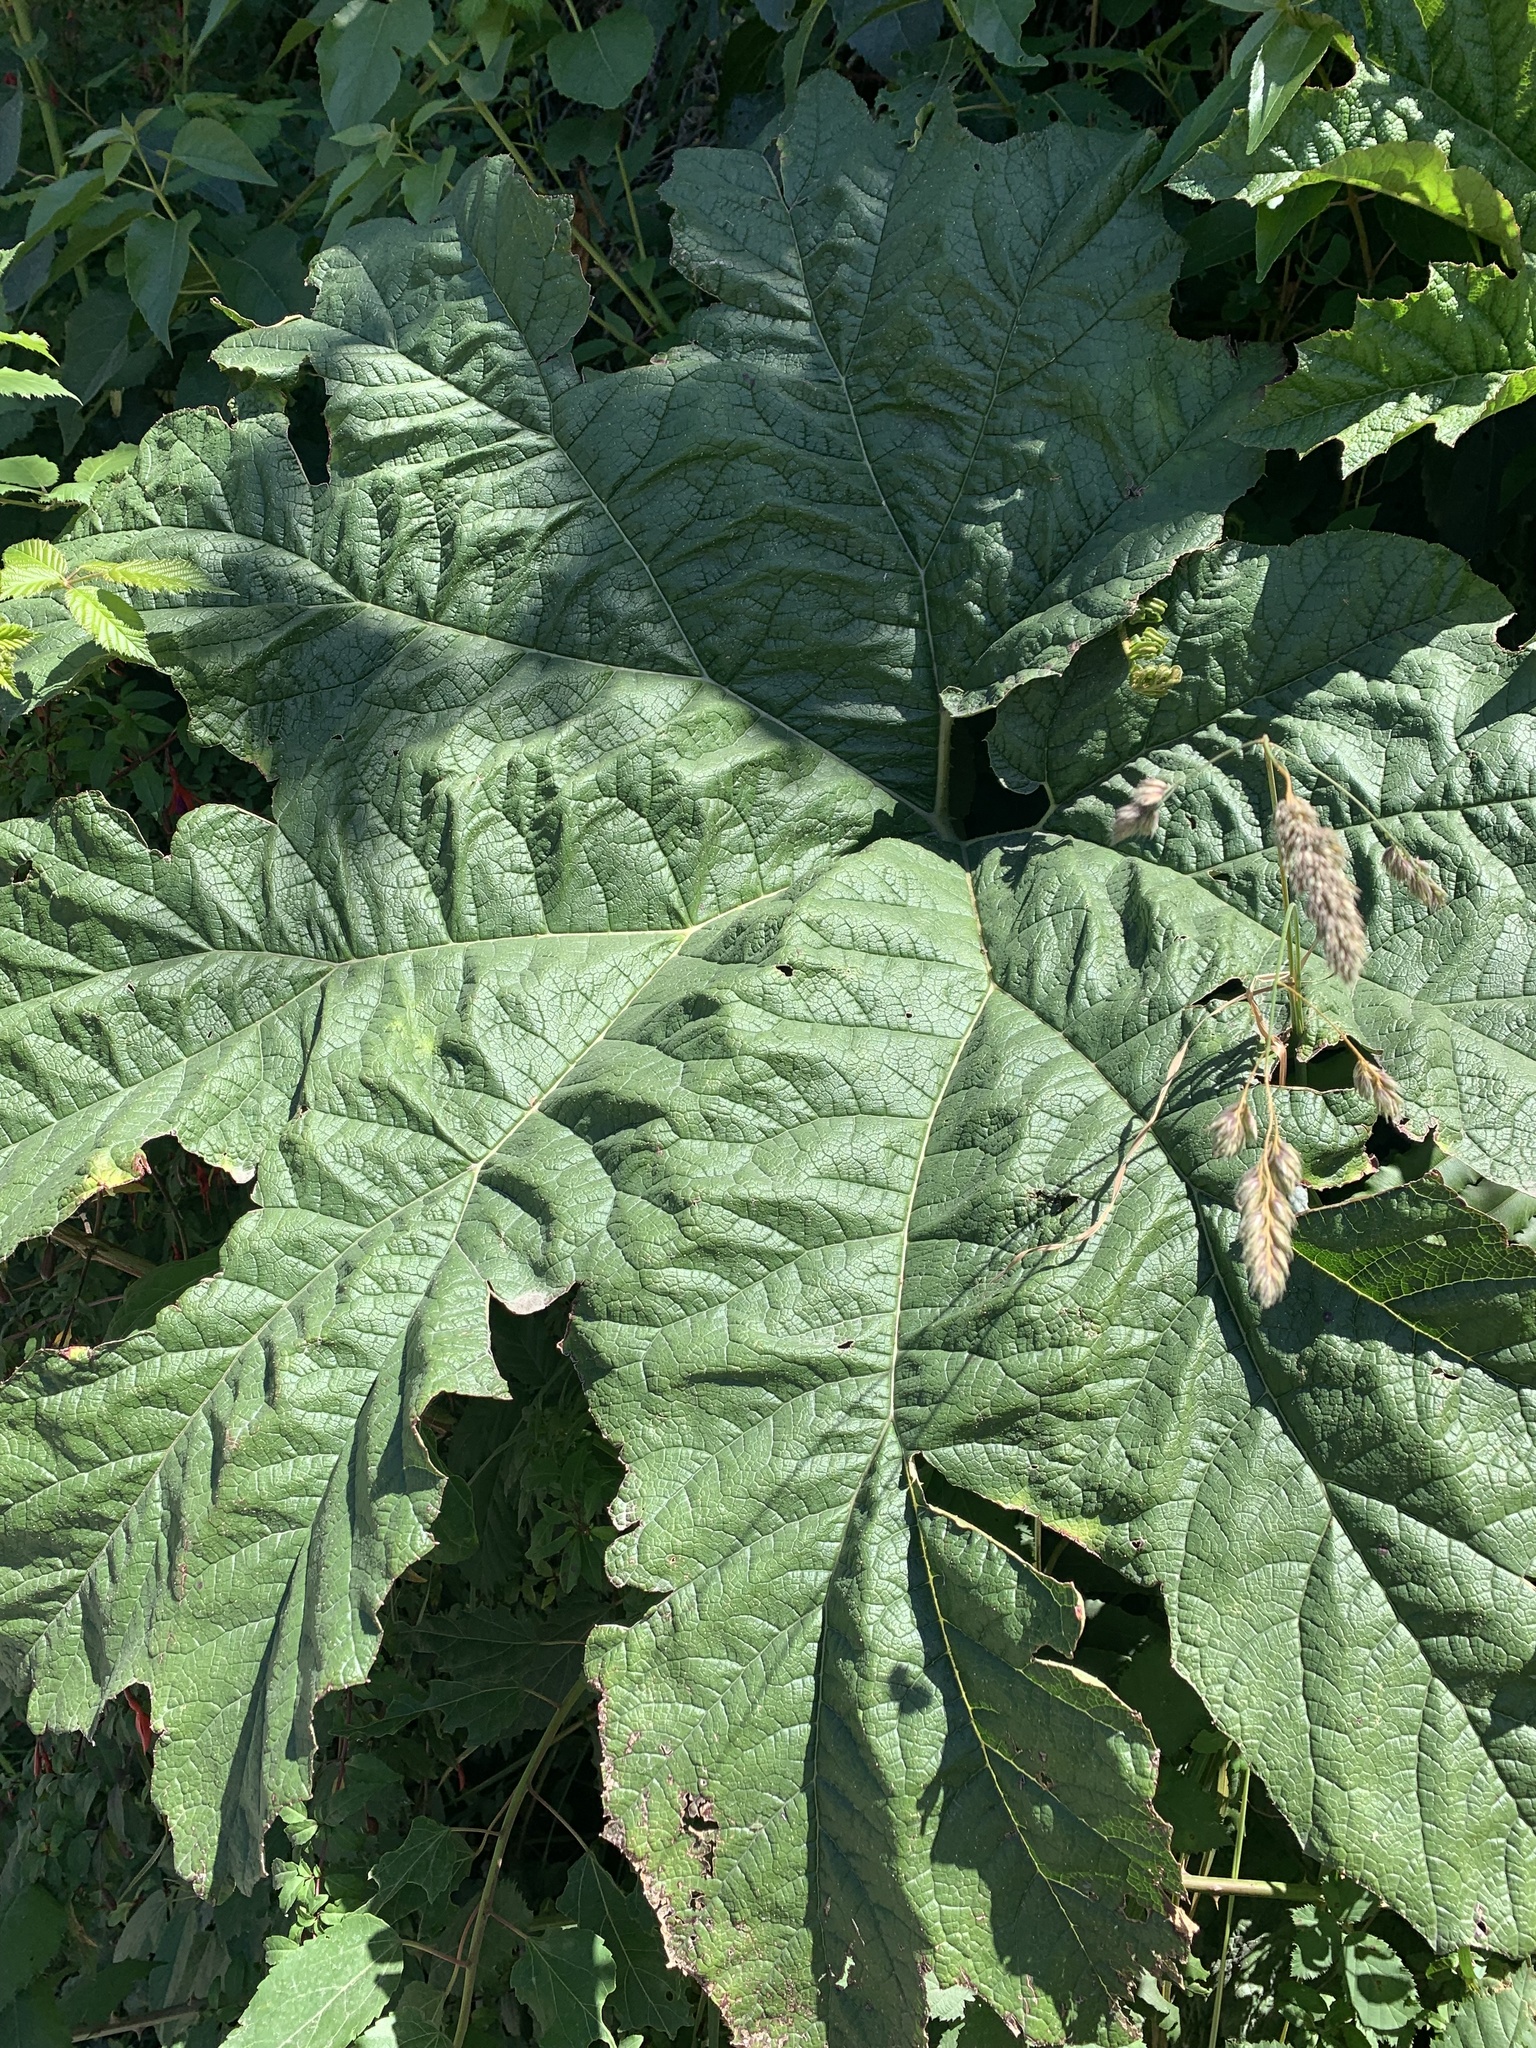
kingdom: Plantae
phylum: Tracheophyta
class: Magnoliopsida
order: Gunnerales
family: Gunneraceae
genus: Gunnera
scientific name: Gunnera tinctoria
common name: Giant-rhubarb
